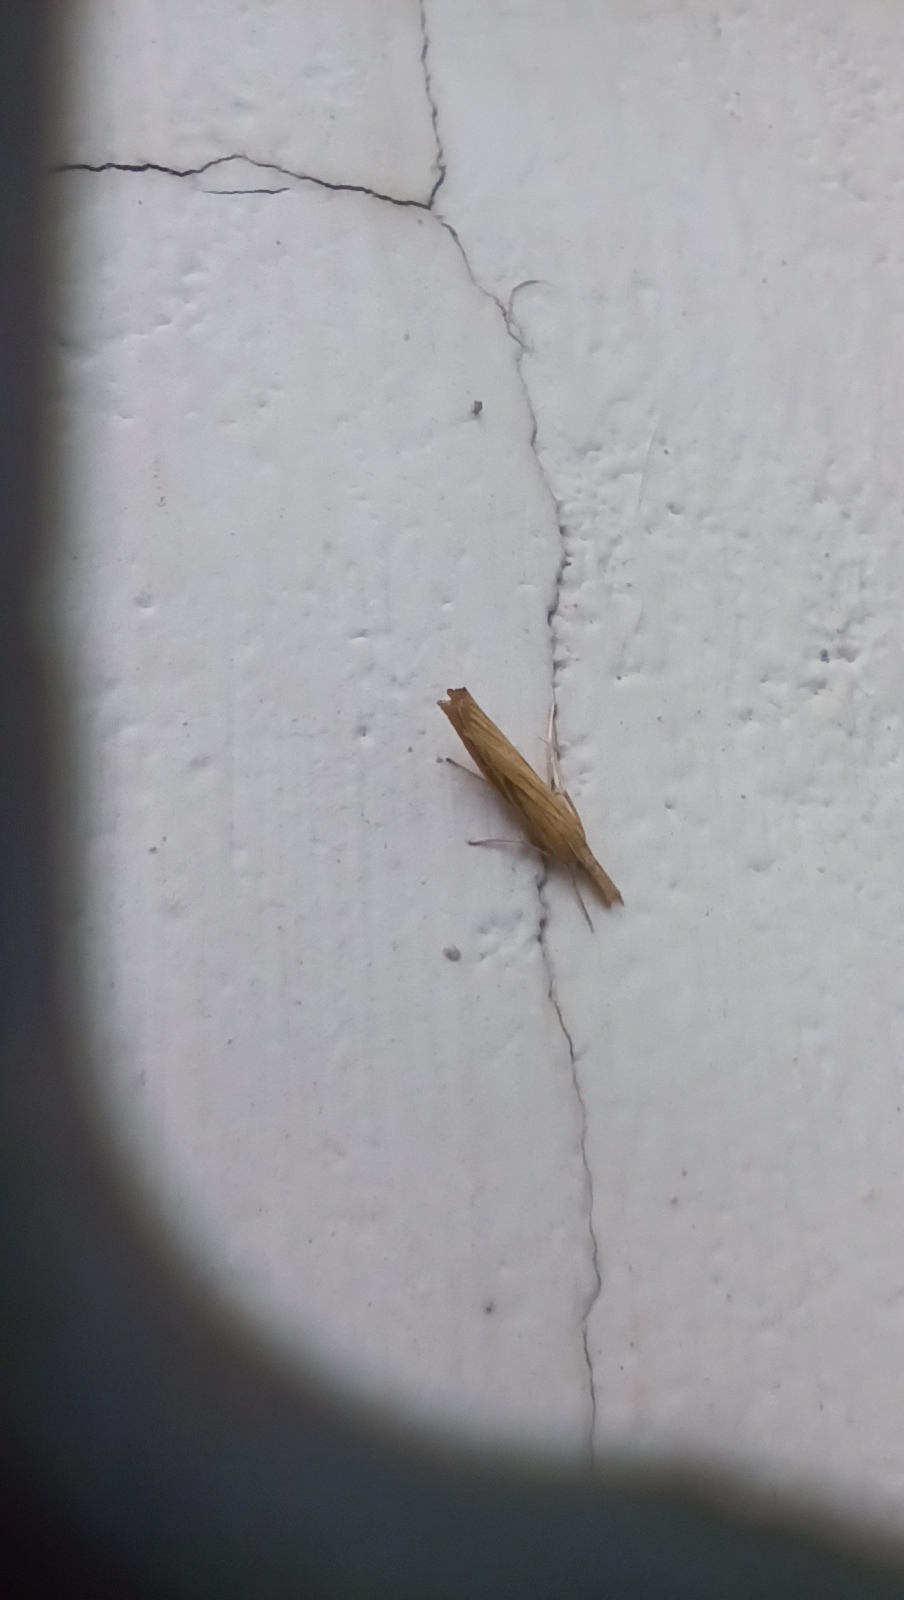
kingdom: Animalia
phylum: Arthropoda
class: Insecta
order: Lepidoptera
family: Crambidae
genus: Agriphila
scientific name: Agriphila tristellus
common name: Common grass-veneer
